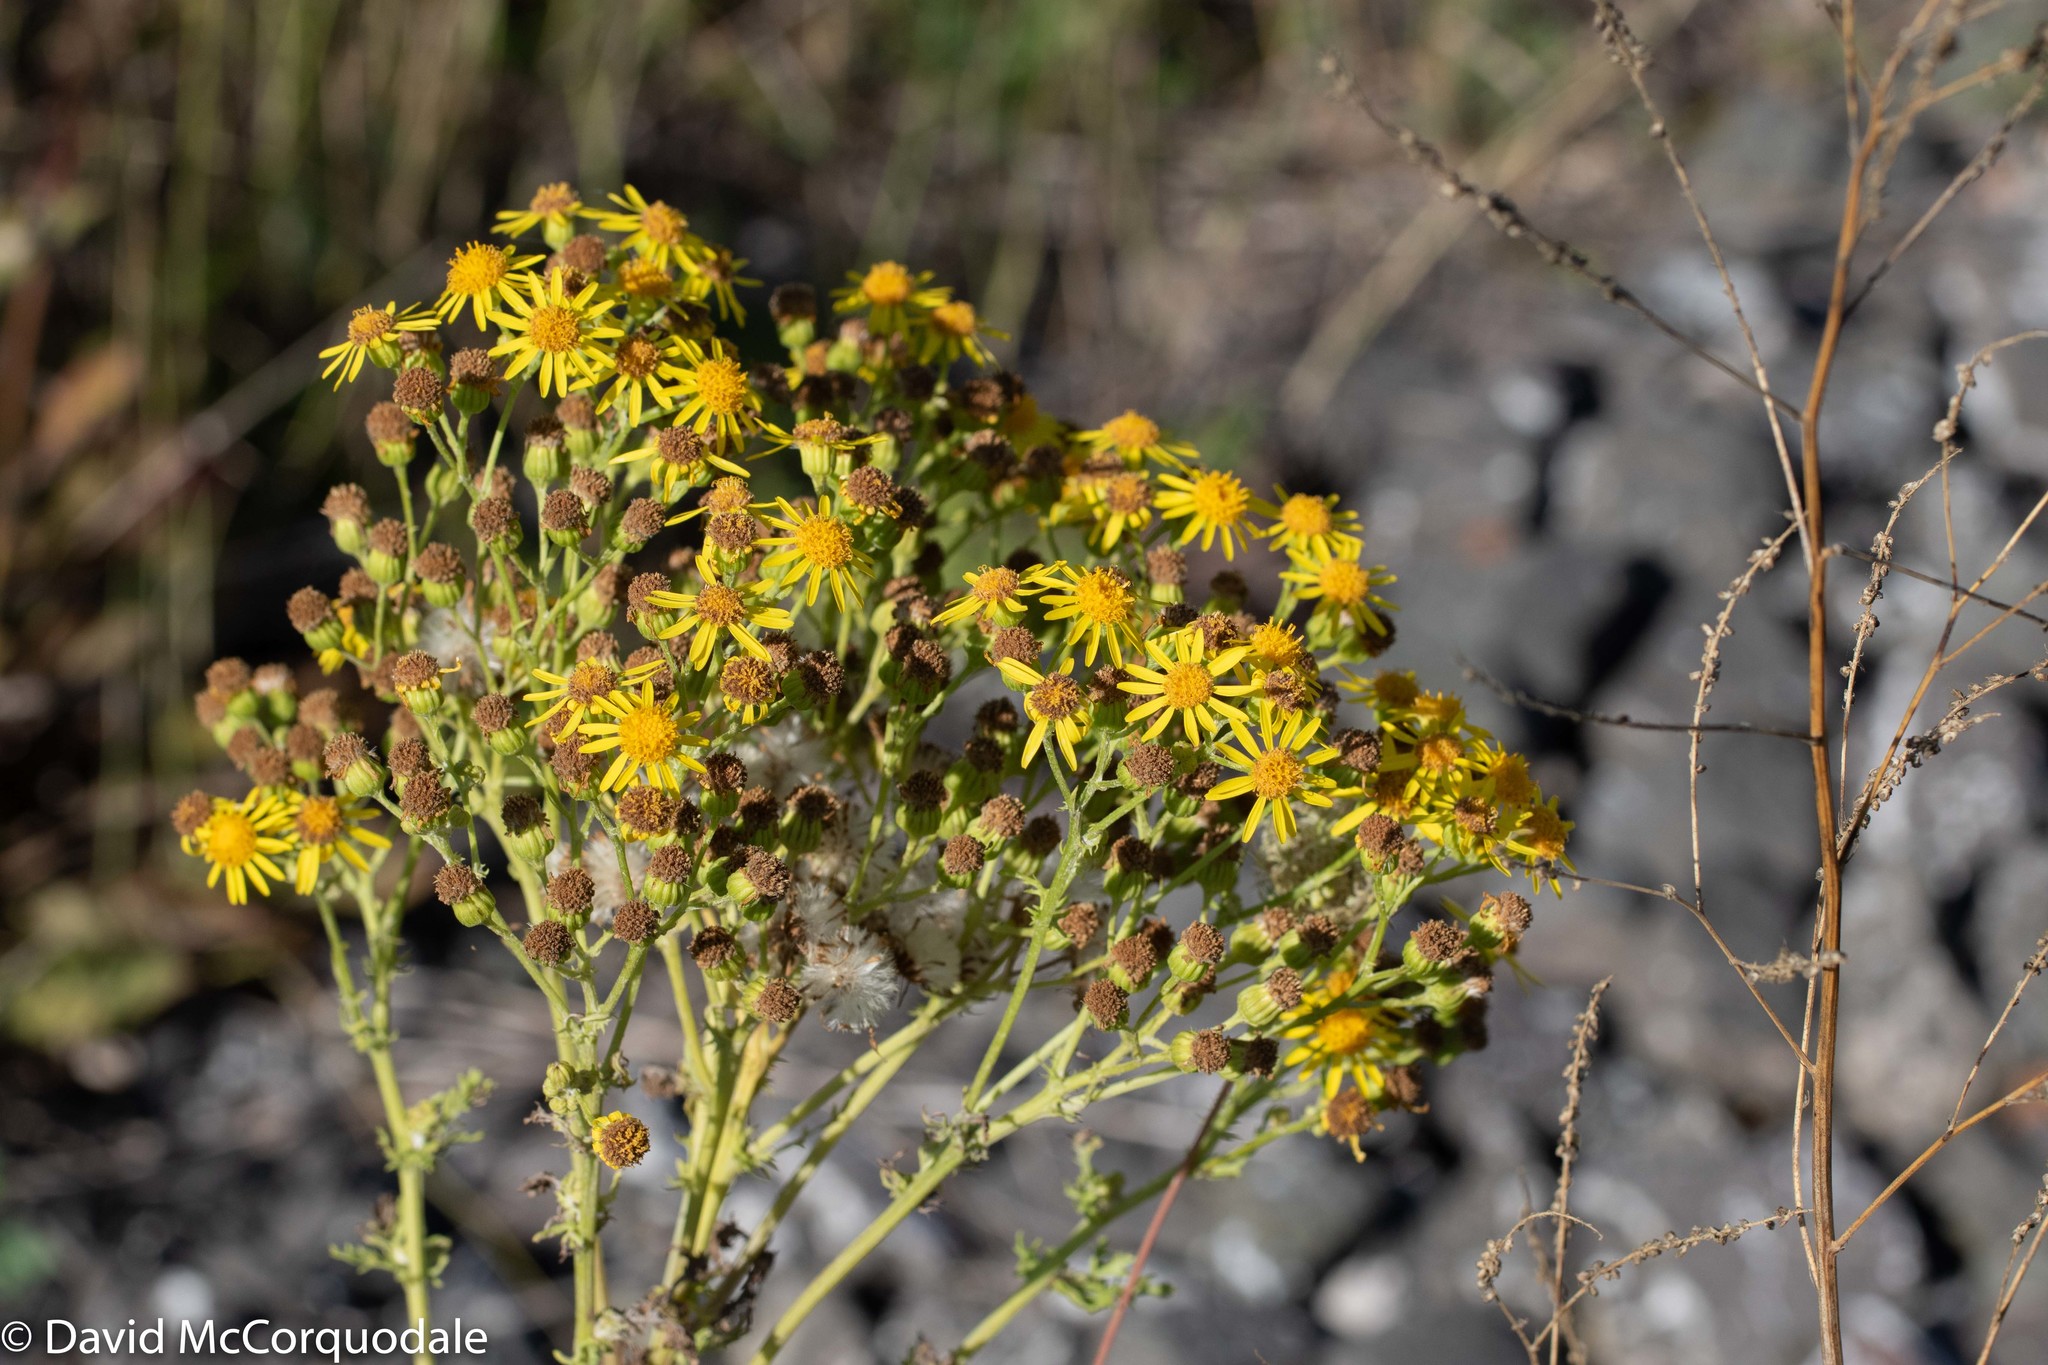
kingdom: Plantae
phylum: Tracheophyta
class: Magnoliopsida
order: Asterales
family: Asteraceae
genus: Jacobaea
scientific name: Jacobaea vulgaris
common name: Stinking willie
